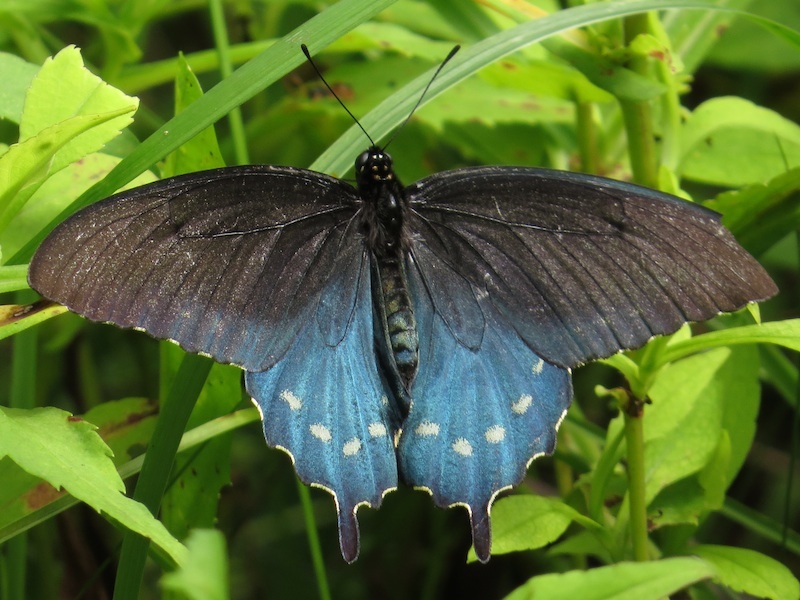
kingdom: Animalia
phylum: Arthropoda
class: Insecta
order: Lepidoptera
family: Papilionidae
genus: Battus
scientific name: Battus philenor
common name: Pipevine swallowtail
